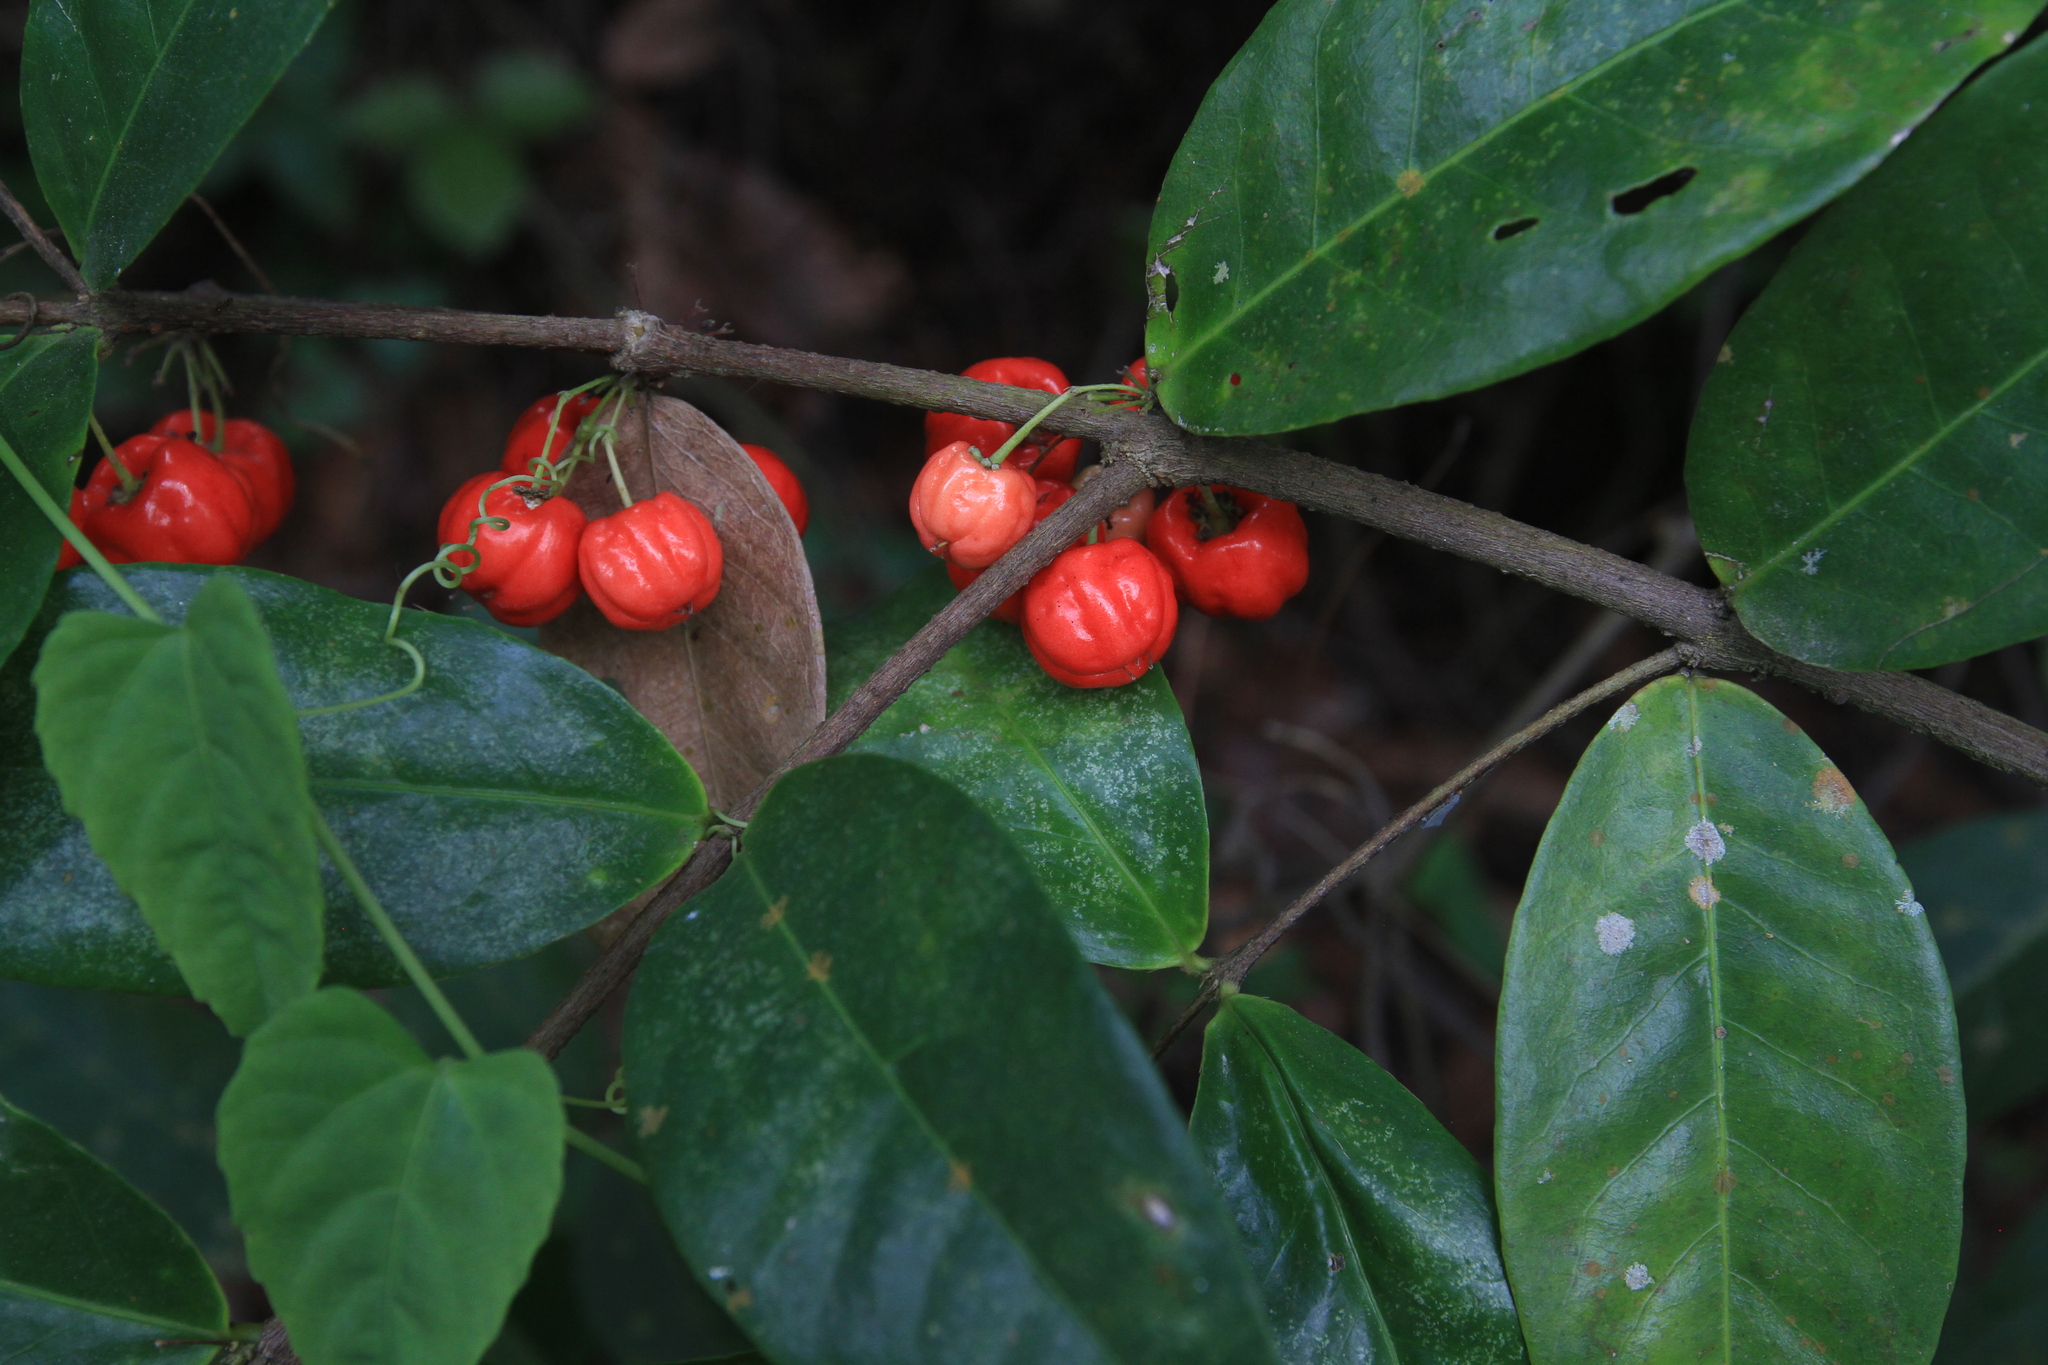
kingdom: Plantae
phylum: Tracheophyta
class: Magnoliopsida
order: Malpighiales
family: Malpighiaceae
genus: Malpighia
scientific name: Malpighia urens
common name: Cow-itch-cherry
